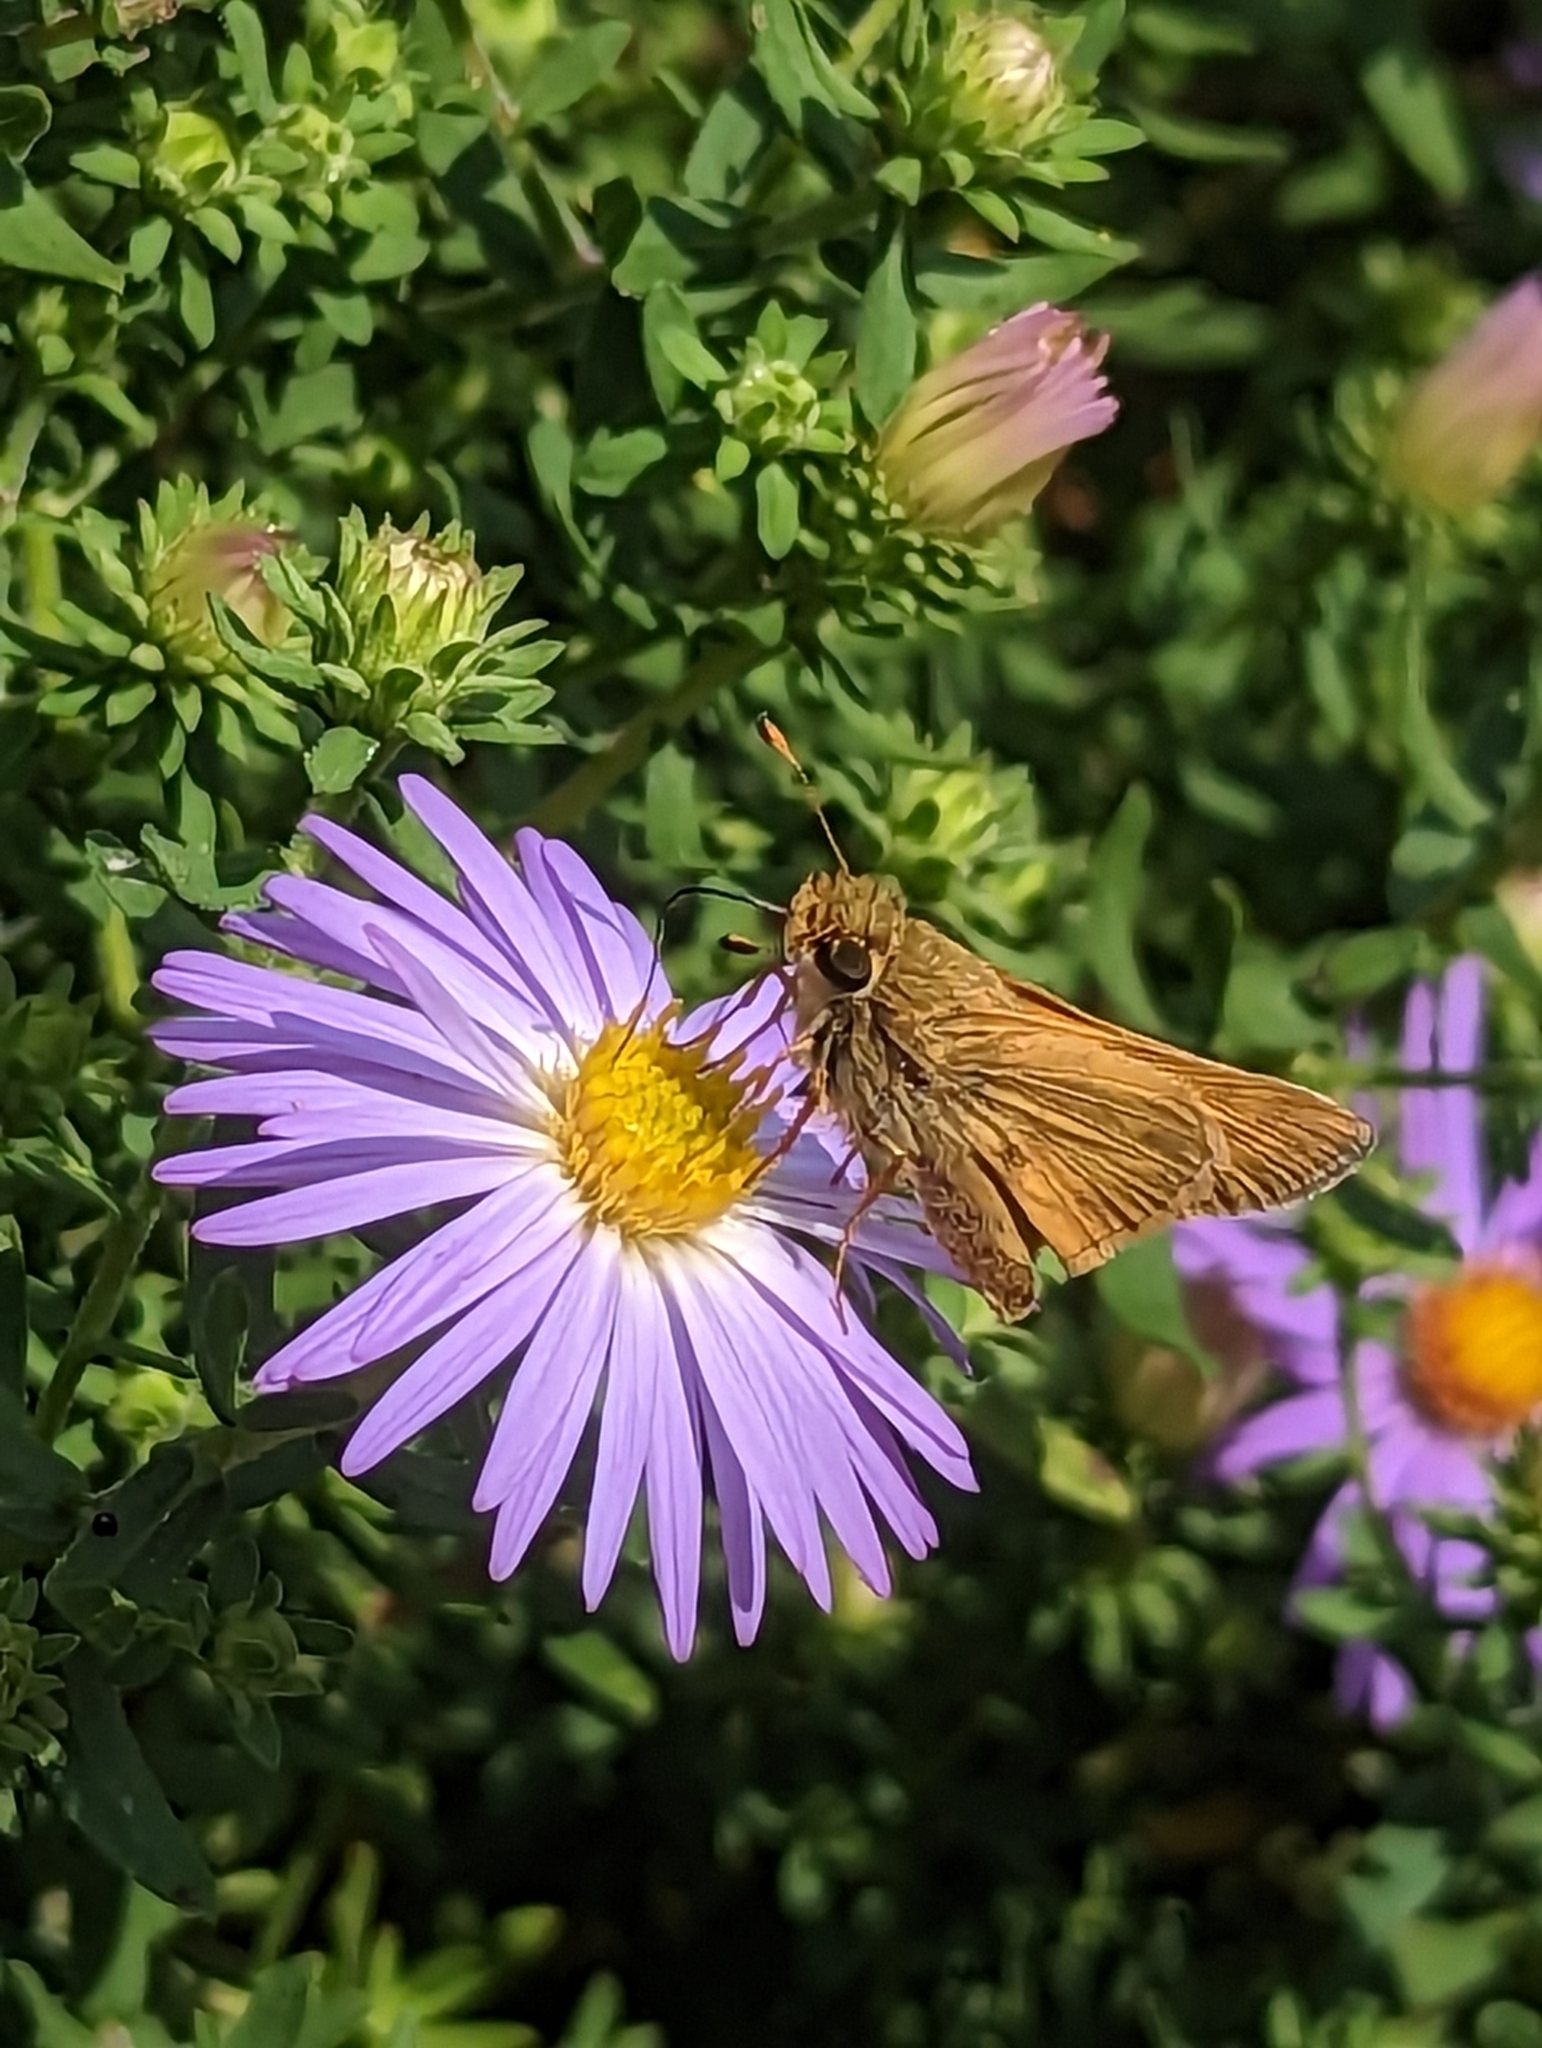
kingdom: Animalia
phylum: Arthropoda
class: Insecta
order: Lepidoptera
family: Hesperiidae
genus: Atalopedes
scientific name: Atalopedes
